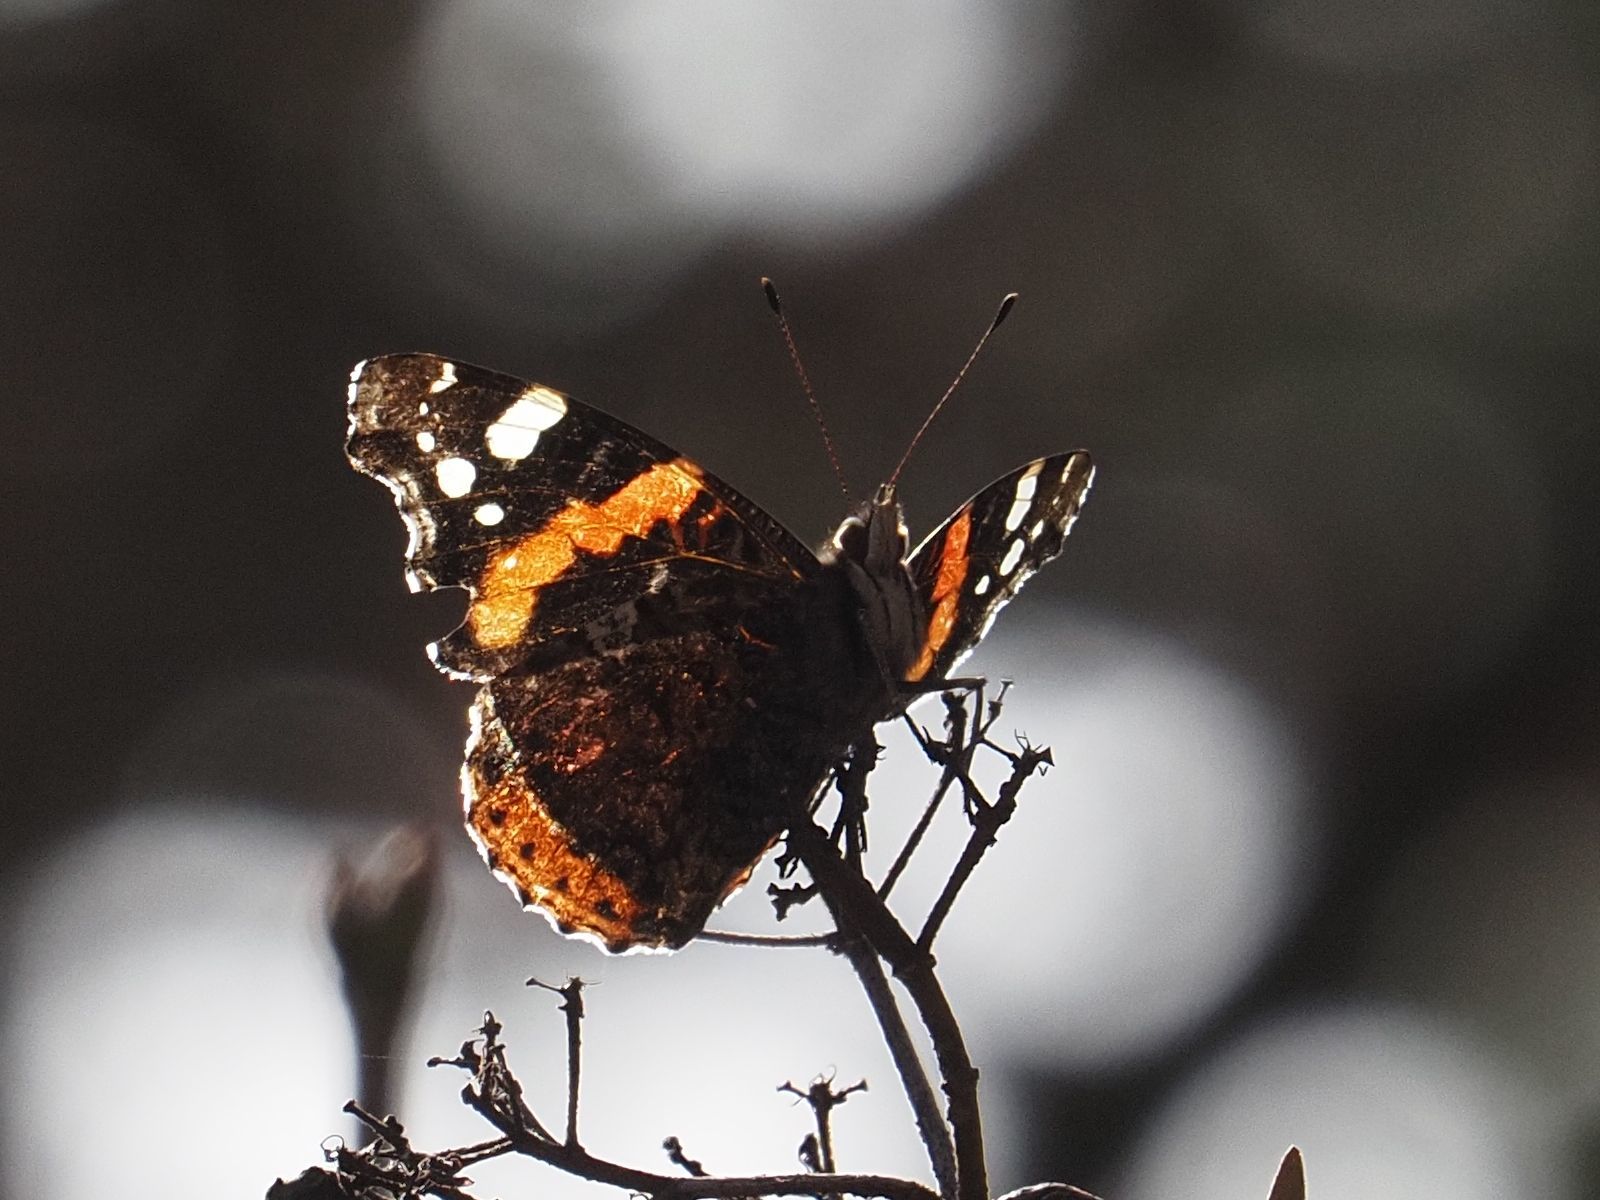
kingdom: Animalia
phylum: Arthropoda
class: Insecta
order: Lepidoptera
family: Nymphalidae
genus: Vanessa
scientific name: Vanessa atalanta
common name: Red admiral
